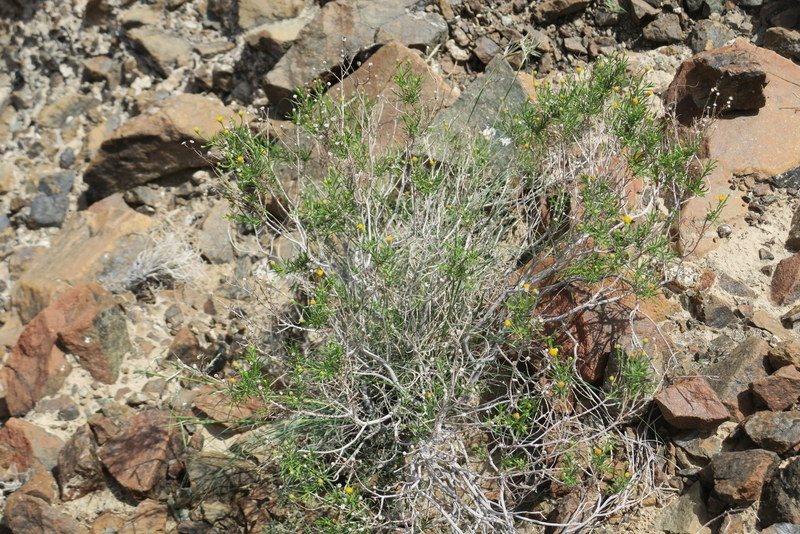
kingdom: Plantae
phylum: Tracheophyta
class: Magnoliopsida
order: Asterales
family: Asteraceae
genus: Pulicaria
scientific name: Pulicaria glutinosa
